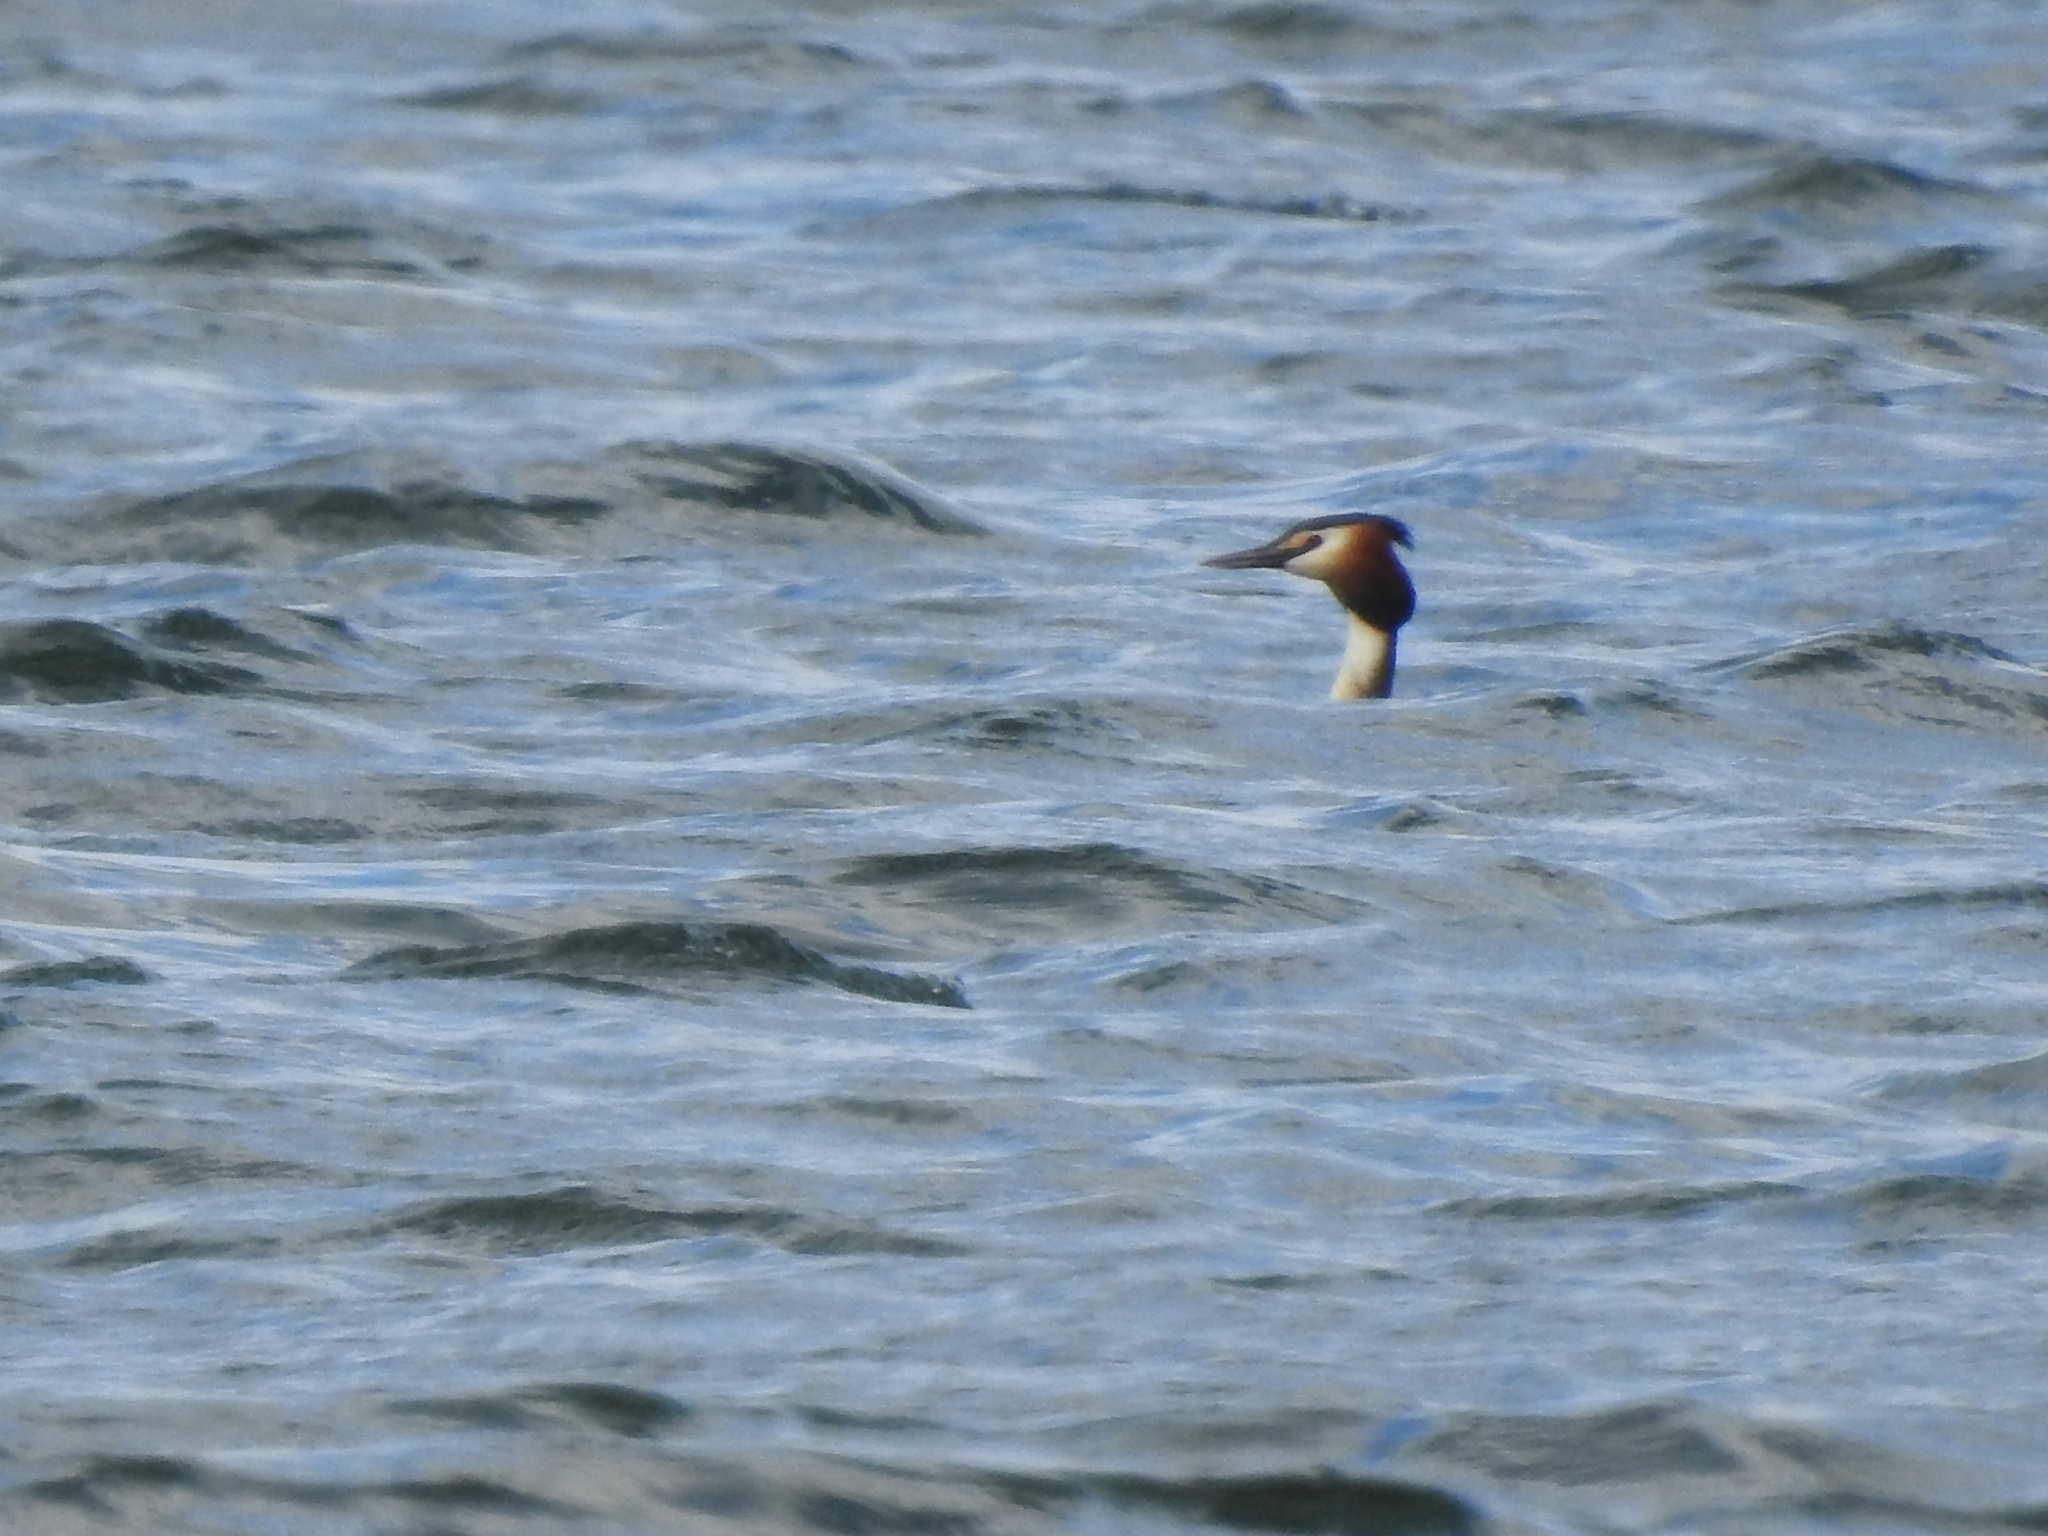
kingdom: Animalia
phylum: Chordata
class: Aves
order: Podicipediformes
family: Podicipedidae
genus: Podiceps
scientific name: Podiceps cristatus
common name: Great crested grebe
